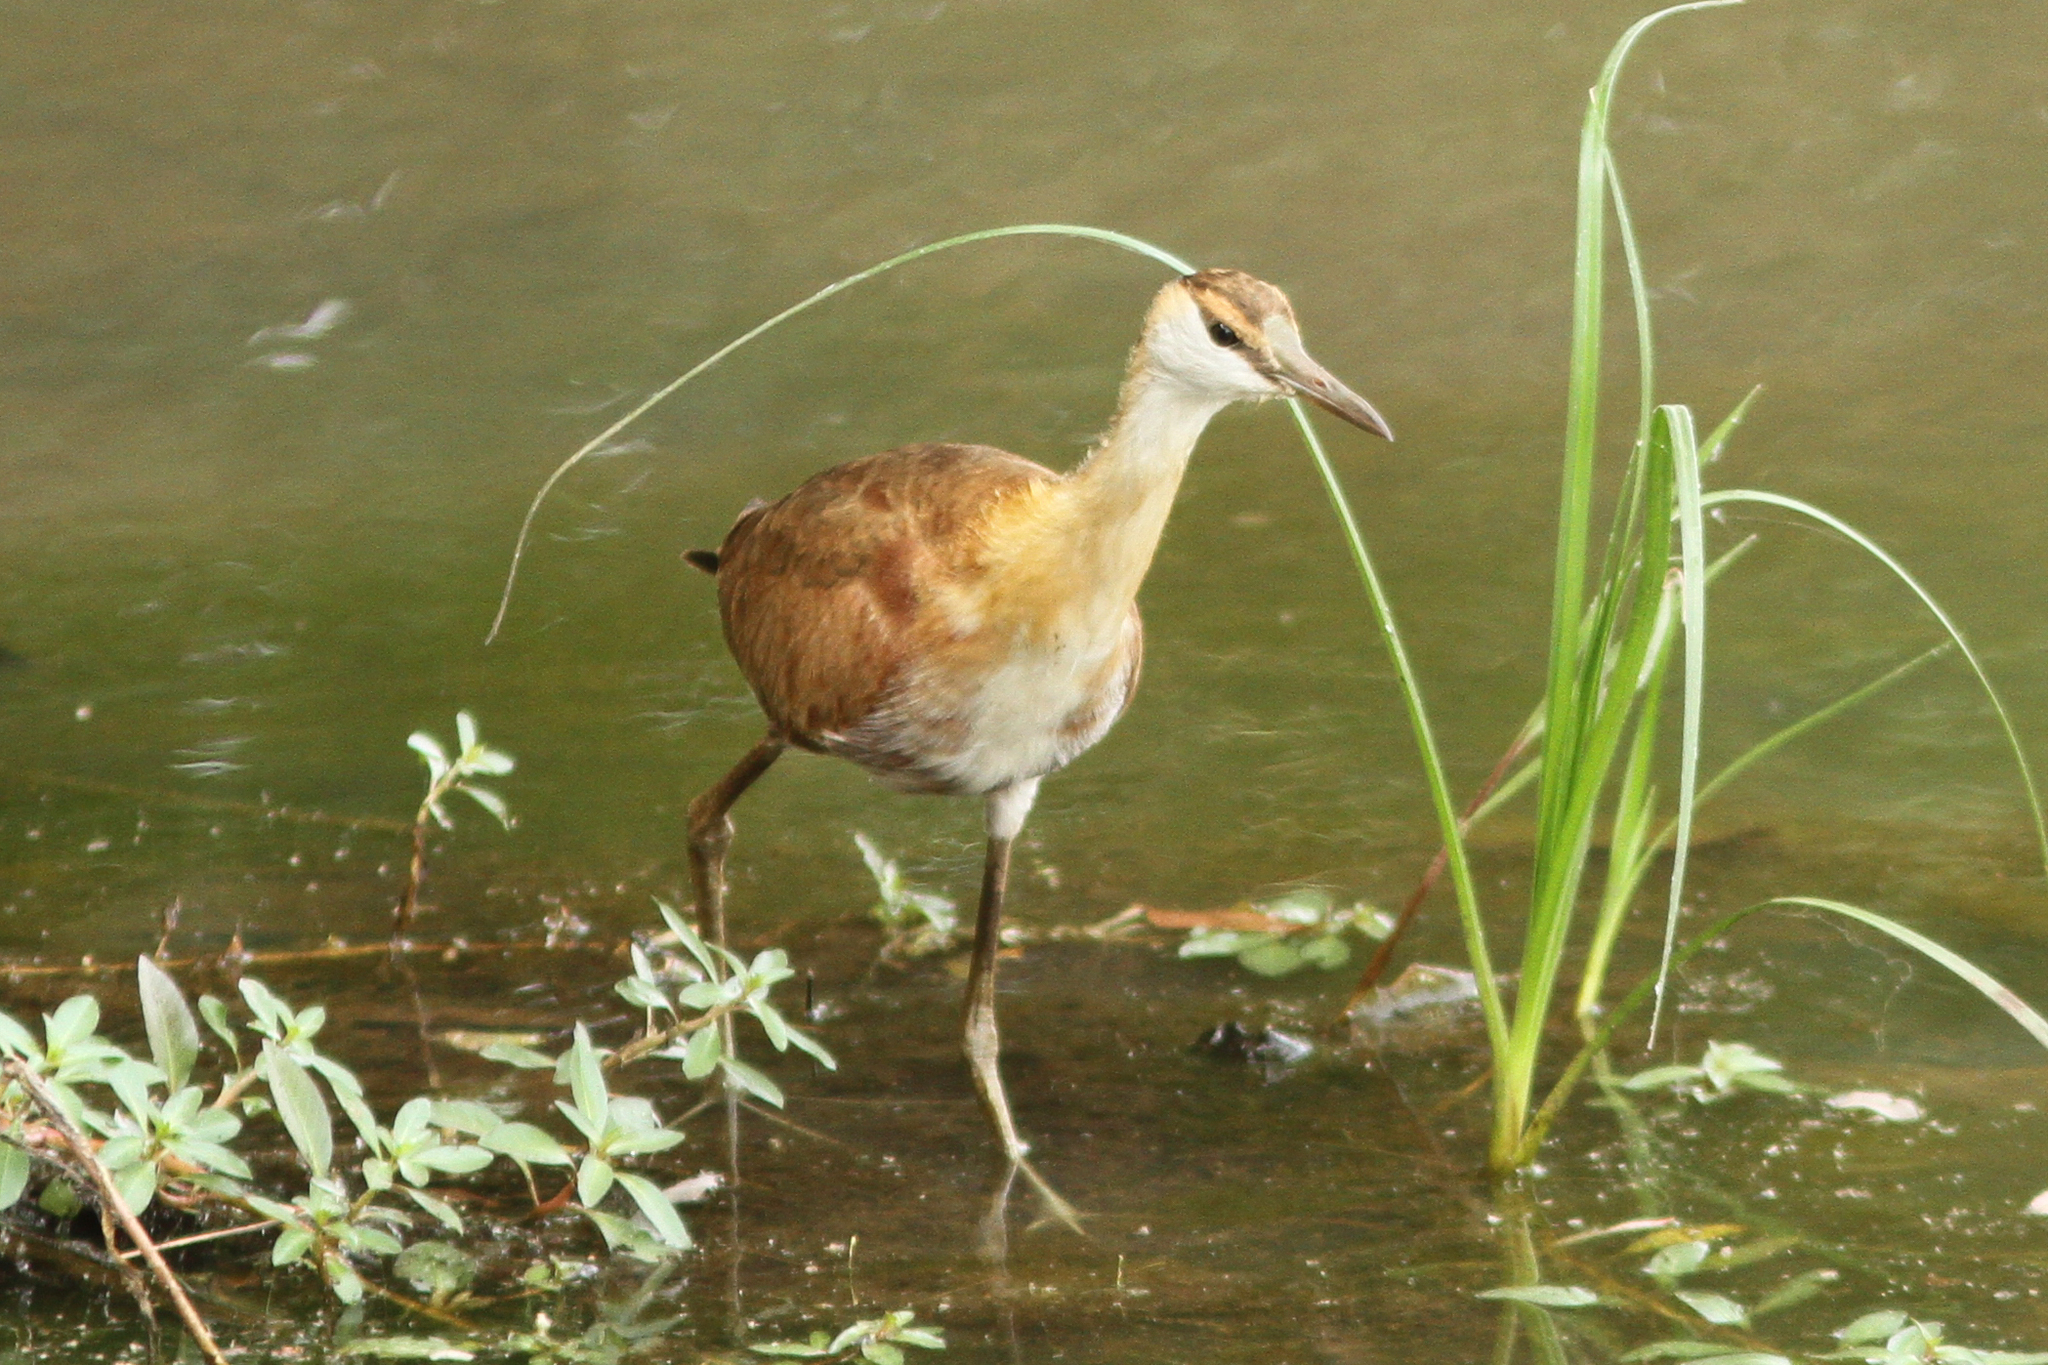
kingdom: Animalia
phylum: Chordata
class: Aves
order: Charadriiformes
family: Jacanidae
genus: Actophilornis
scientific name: Actophilornis africanus
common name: African jacana
